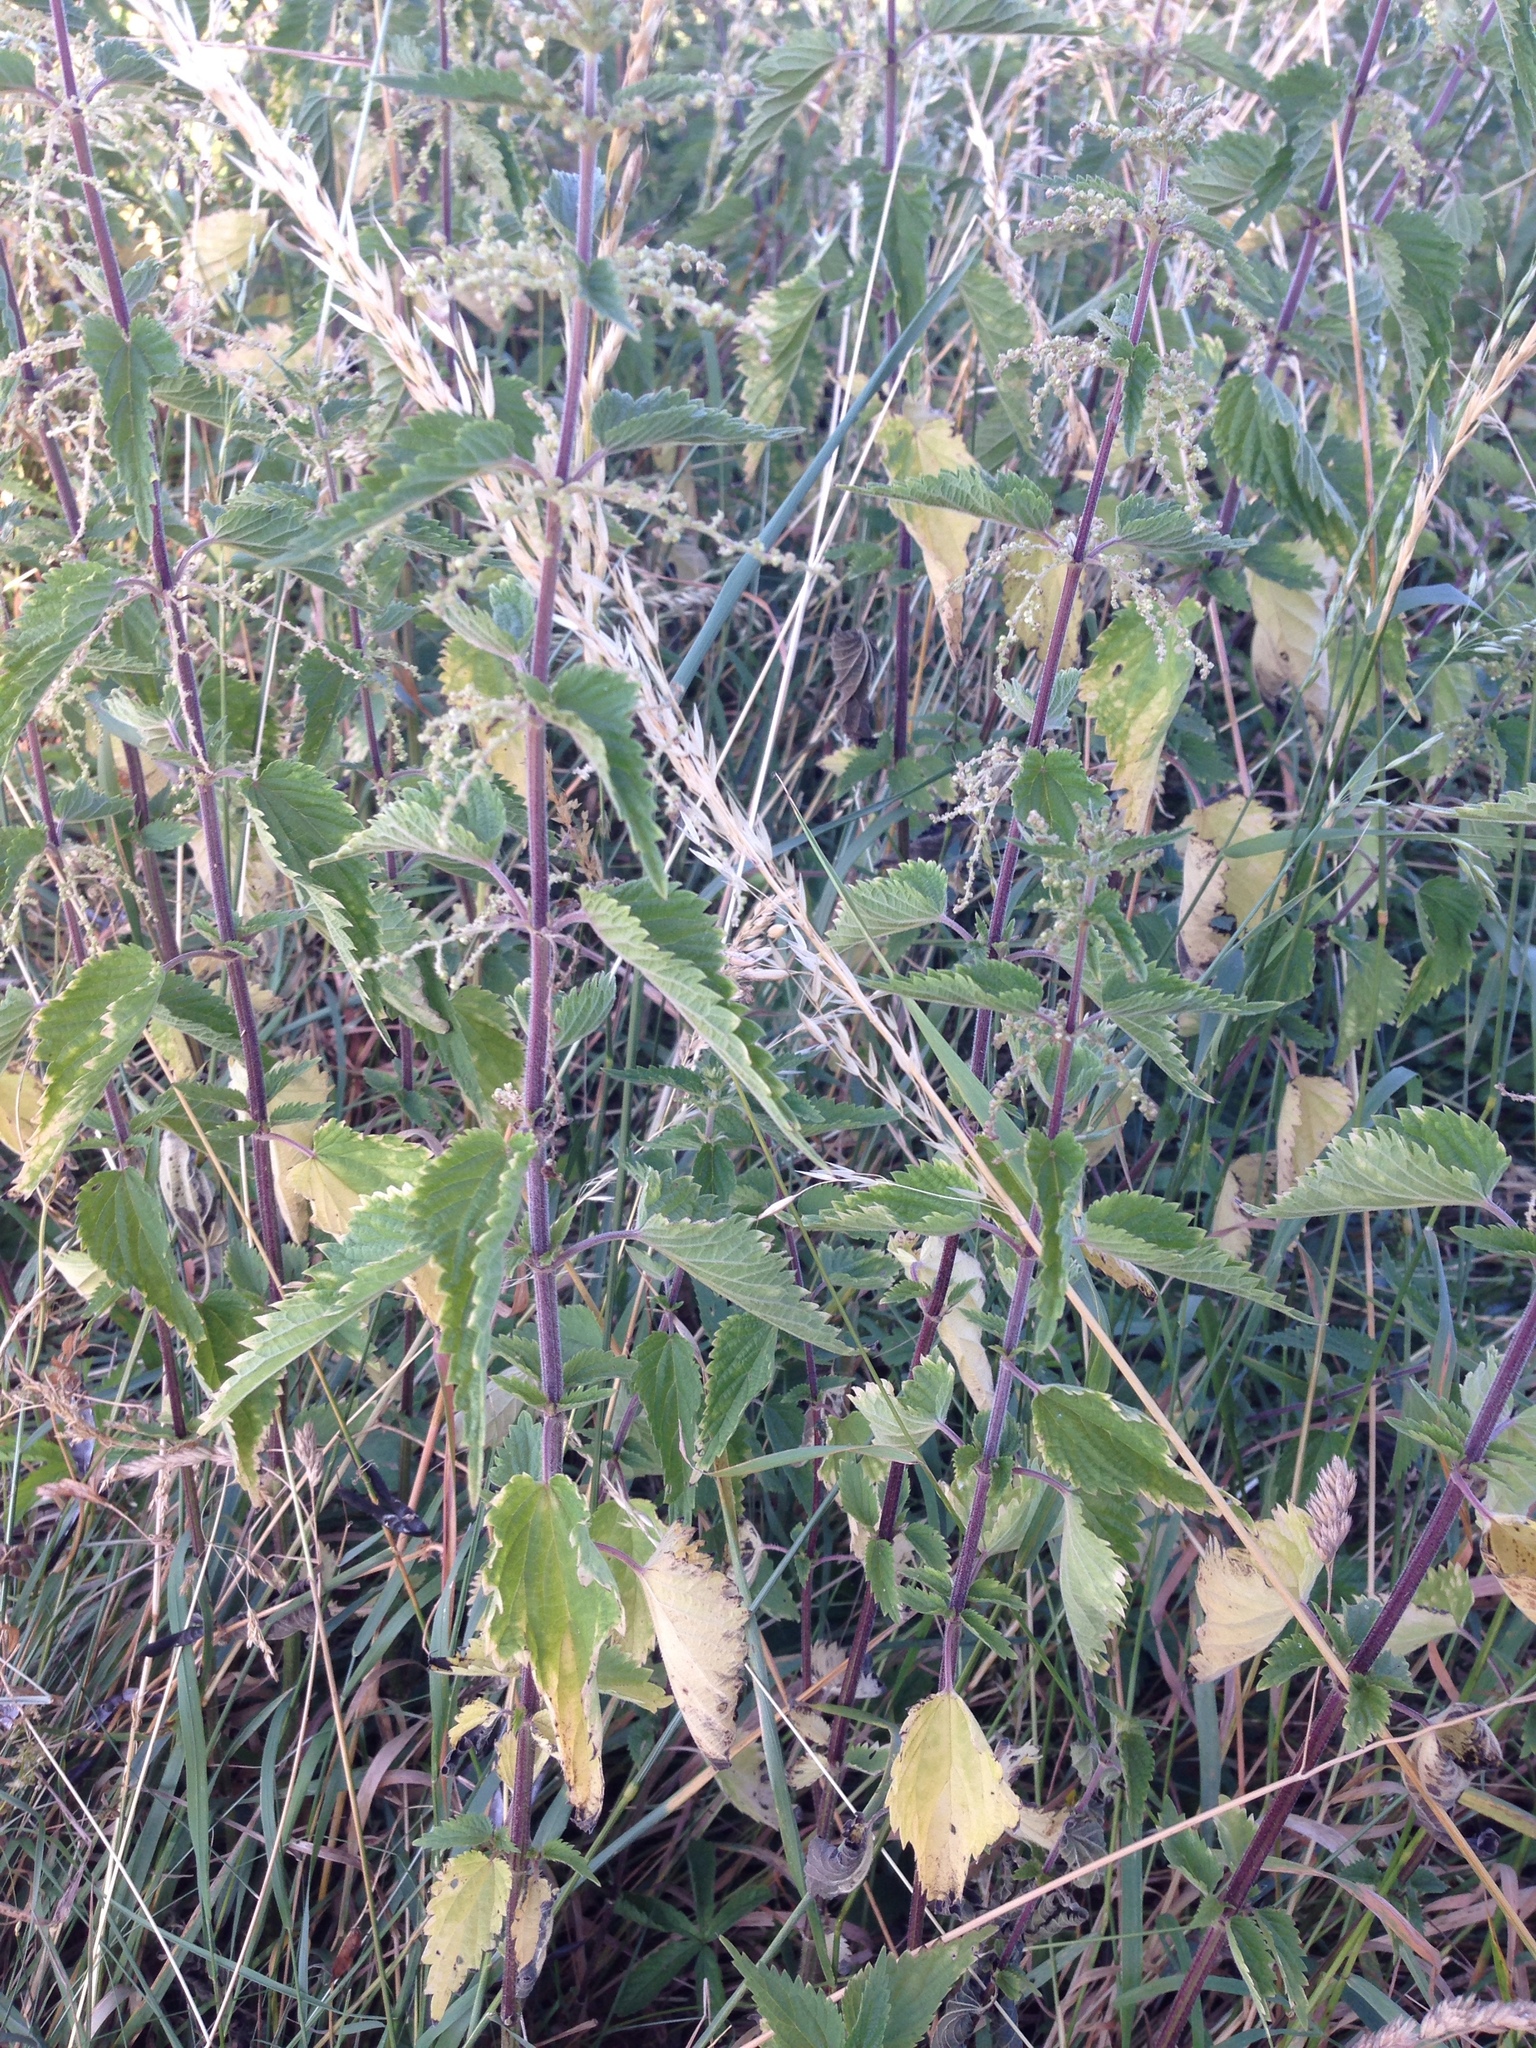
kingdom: Plantae
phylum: Tracheophyta
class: Magnoliopsida
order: Rosales
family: Urticaceae
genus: Urtica
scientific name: Urtica dioica
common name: Common nettle
